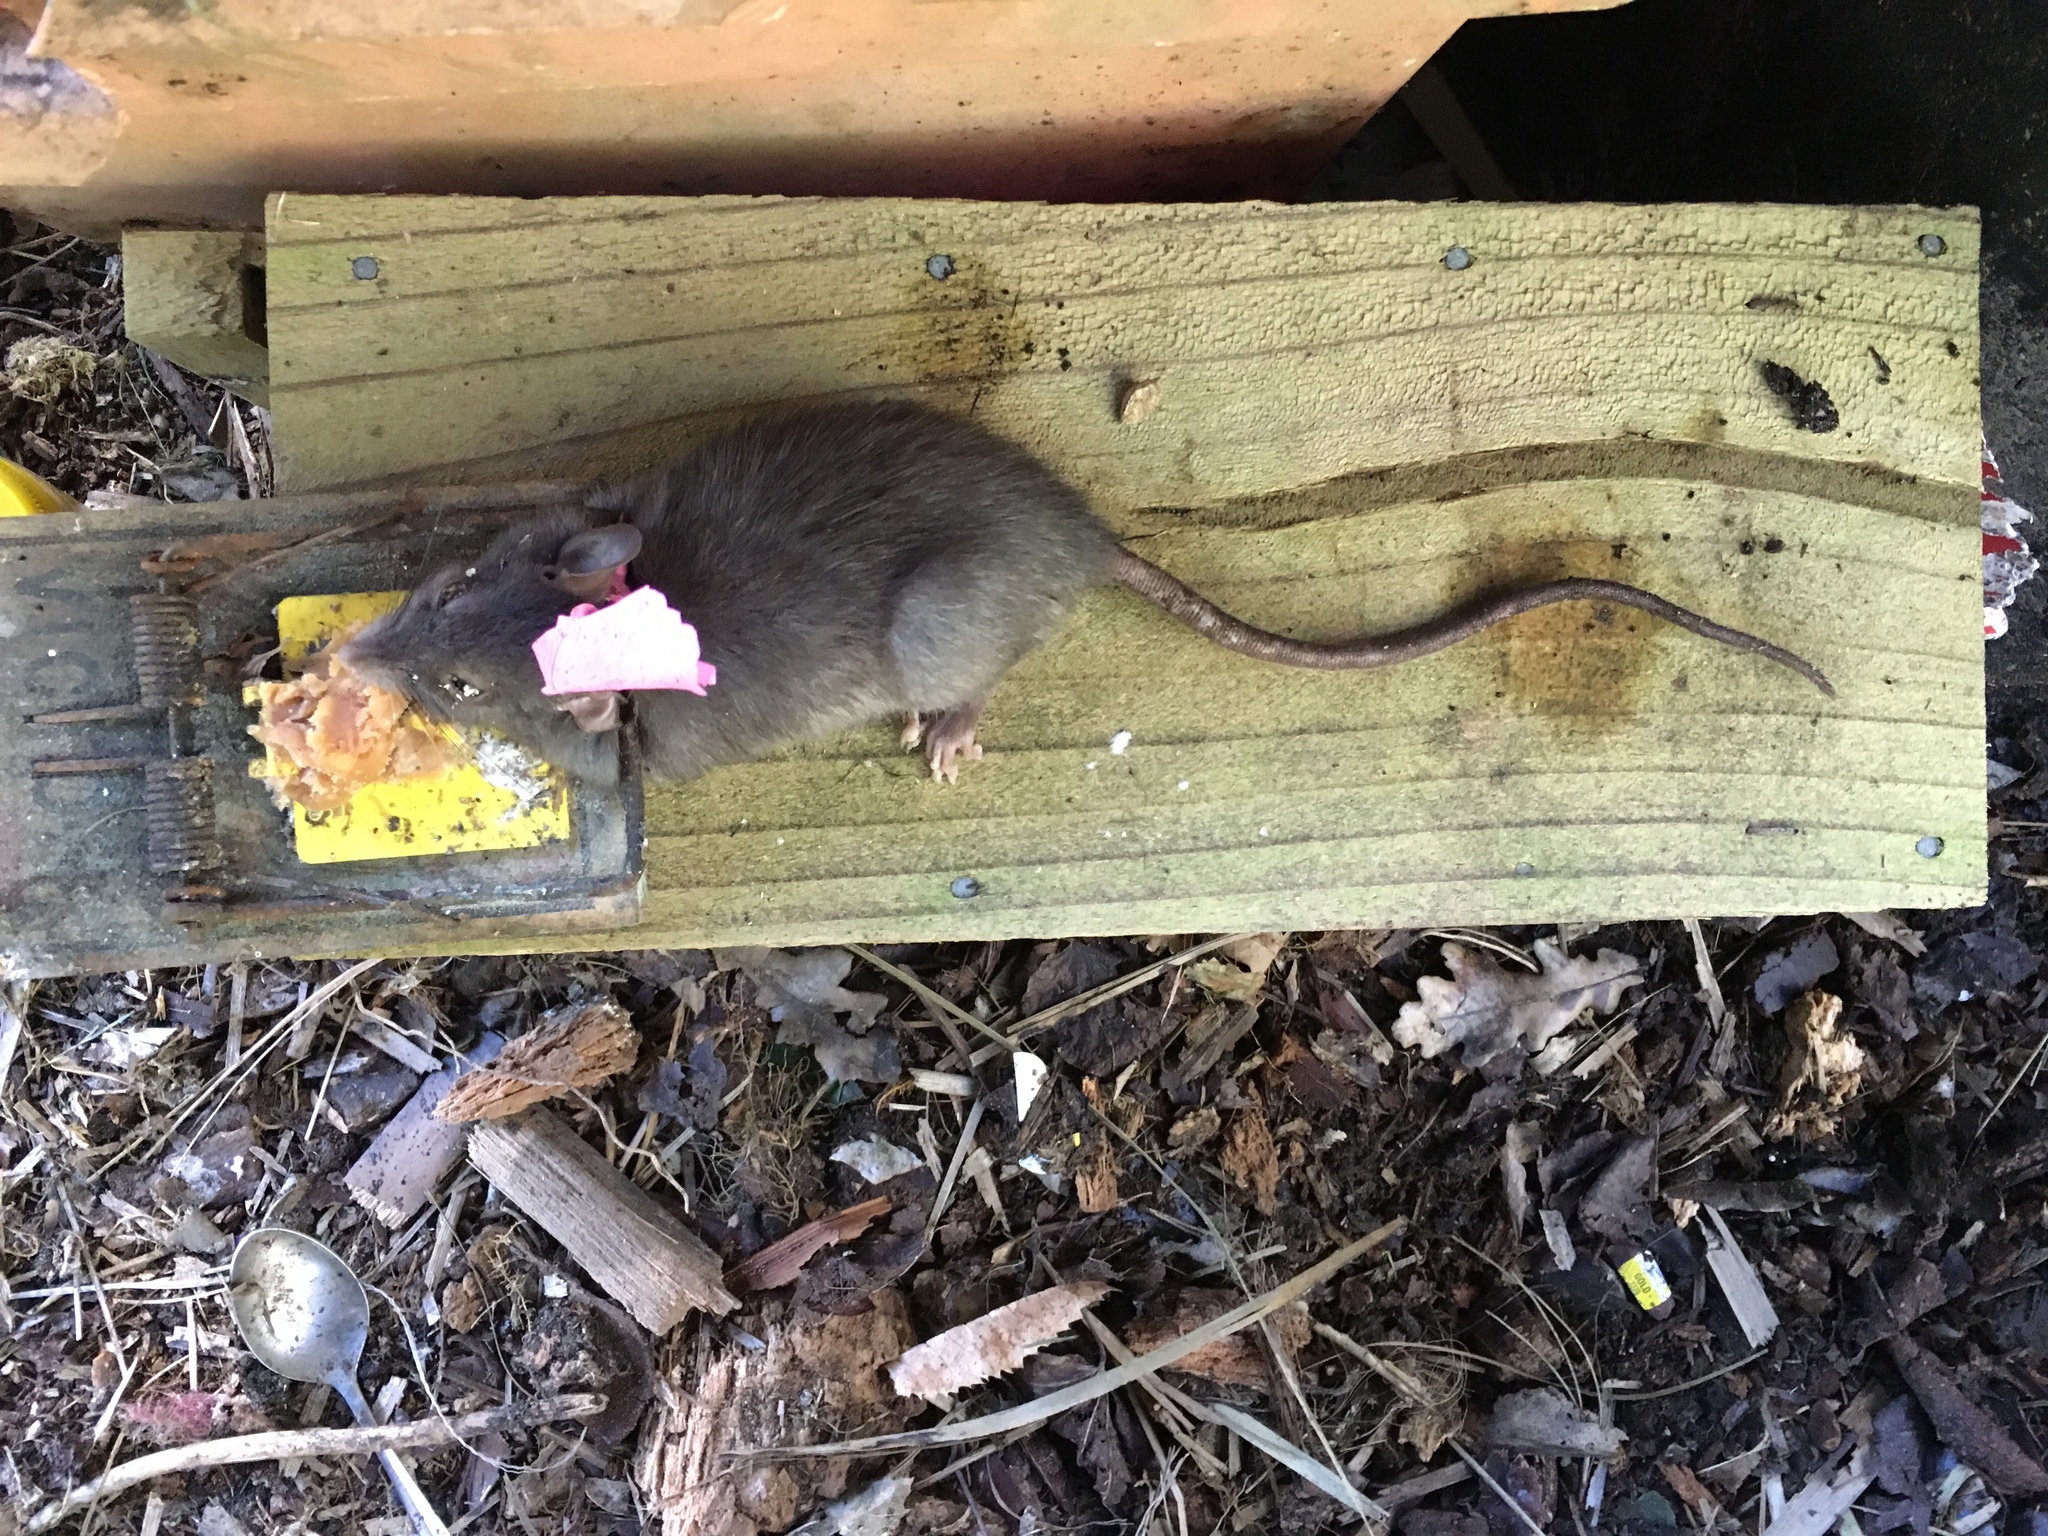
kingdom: Animalia
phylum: Chordata
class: Mammalia
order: Rodentia
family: Muridae
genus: Rattus
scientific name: Rattus rattus
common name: Black rat
